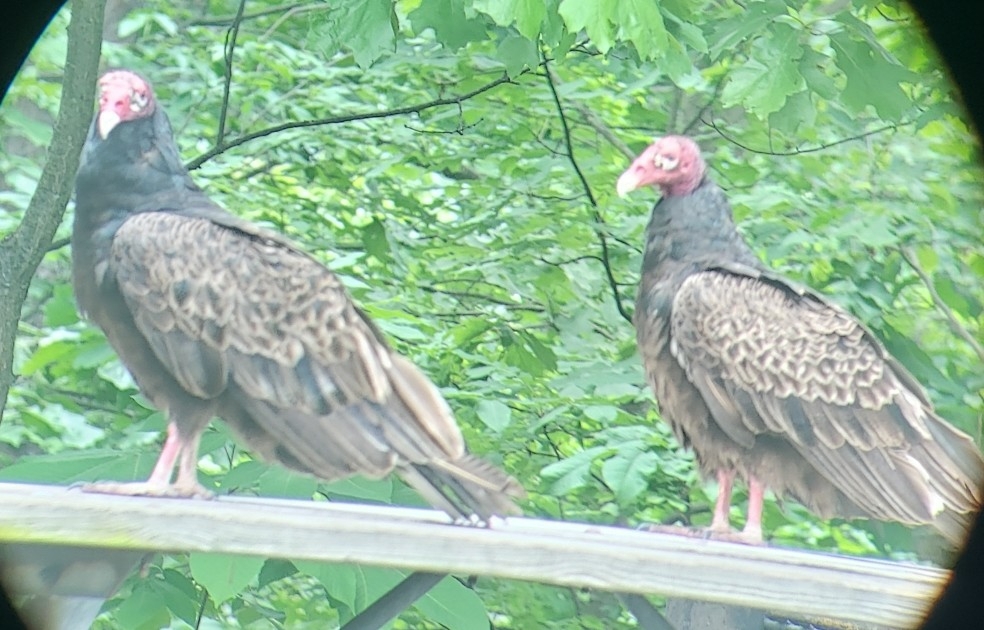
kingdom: Animalia
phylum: Chordata
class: Aves
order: Accipitriformes
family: Cathartidae
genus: Cathartes
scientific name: Cathartes aura
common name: Turkey vulture
